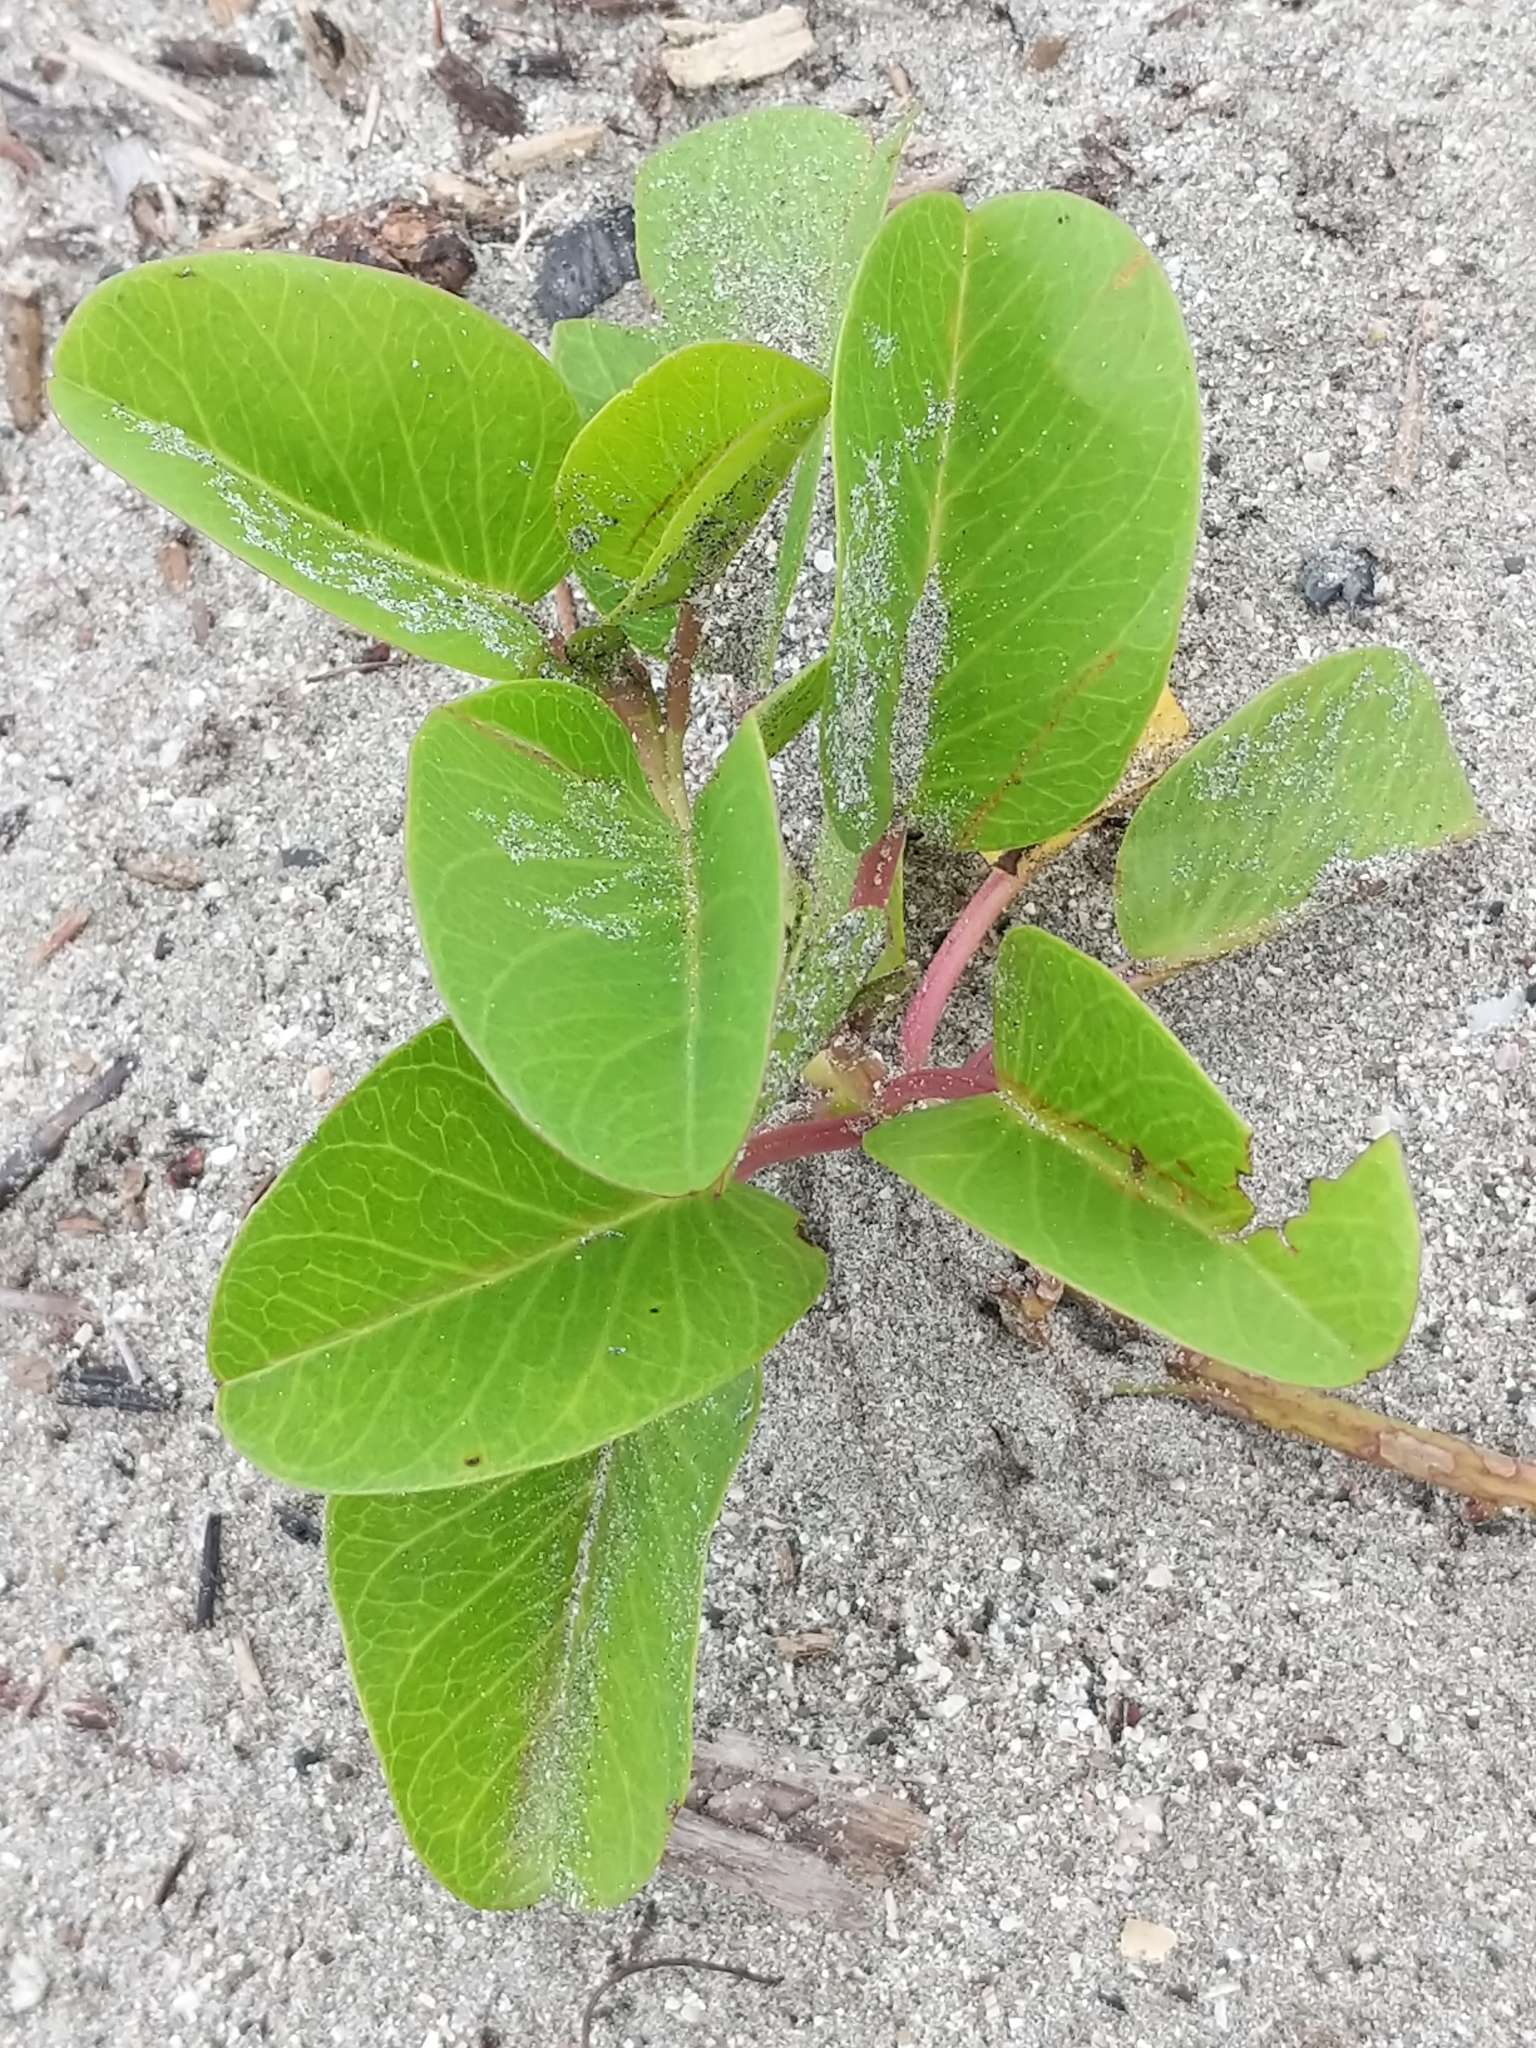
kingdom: Plantae
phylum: Tracheophyta
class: Magnoliopsida
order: Solanales
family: Convolvulaceae
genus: Ipomoea
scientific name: Ipomoea pes-caprae
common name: Beach morning glory
